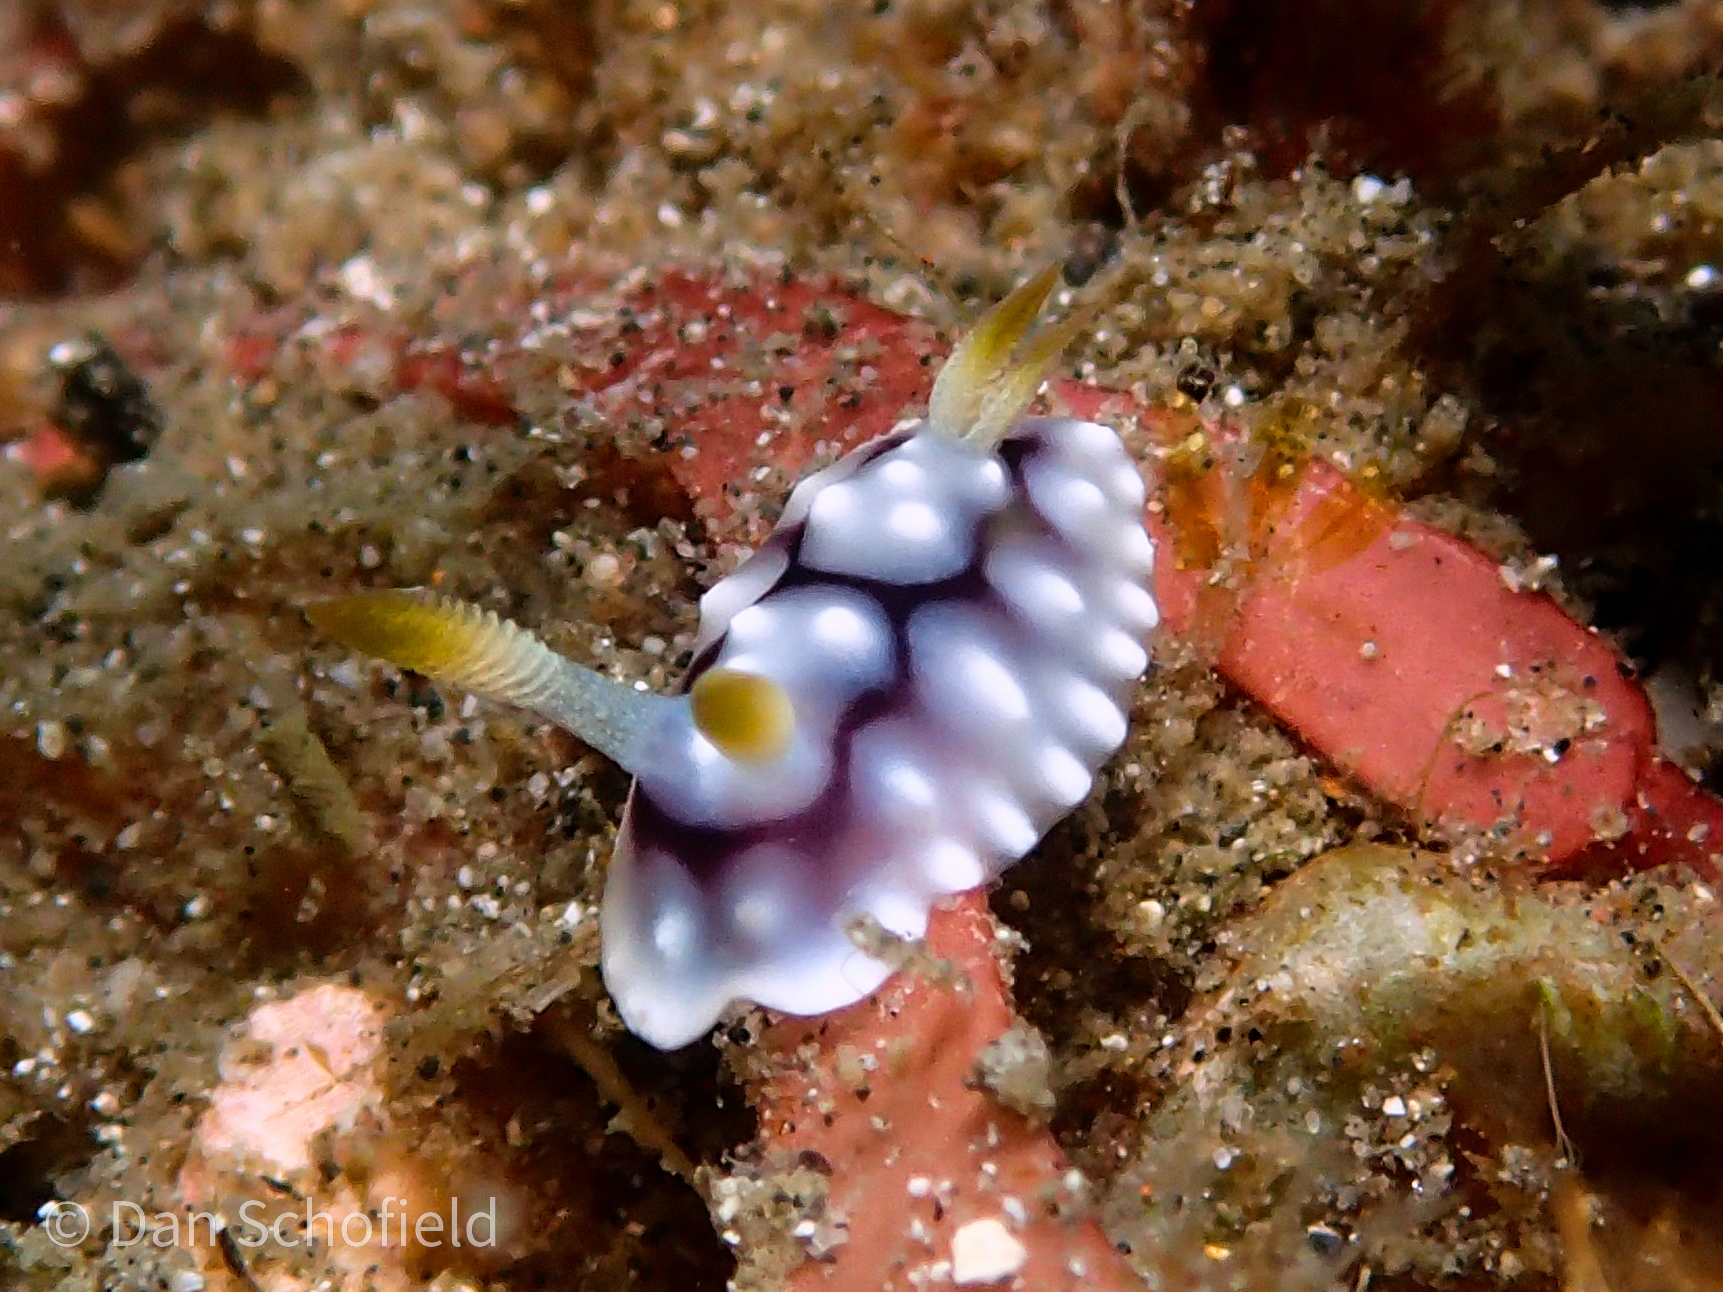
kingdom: Animalia
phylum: Mollusca
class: Gastropoda
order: Nudibranchia
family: Chromodorididae
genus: Goniobranchus
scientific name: Goniobranchus geometricus
